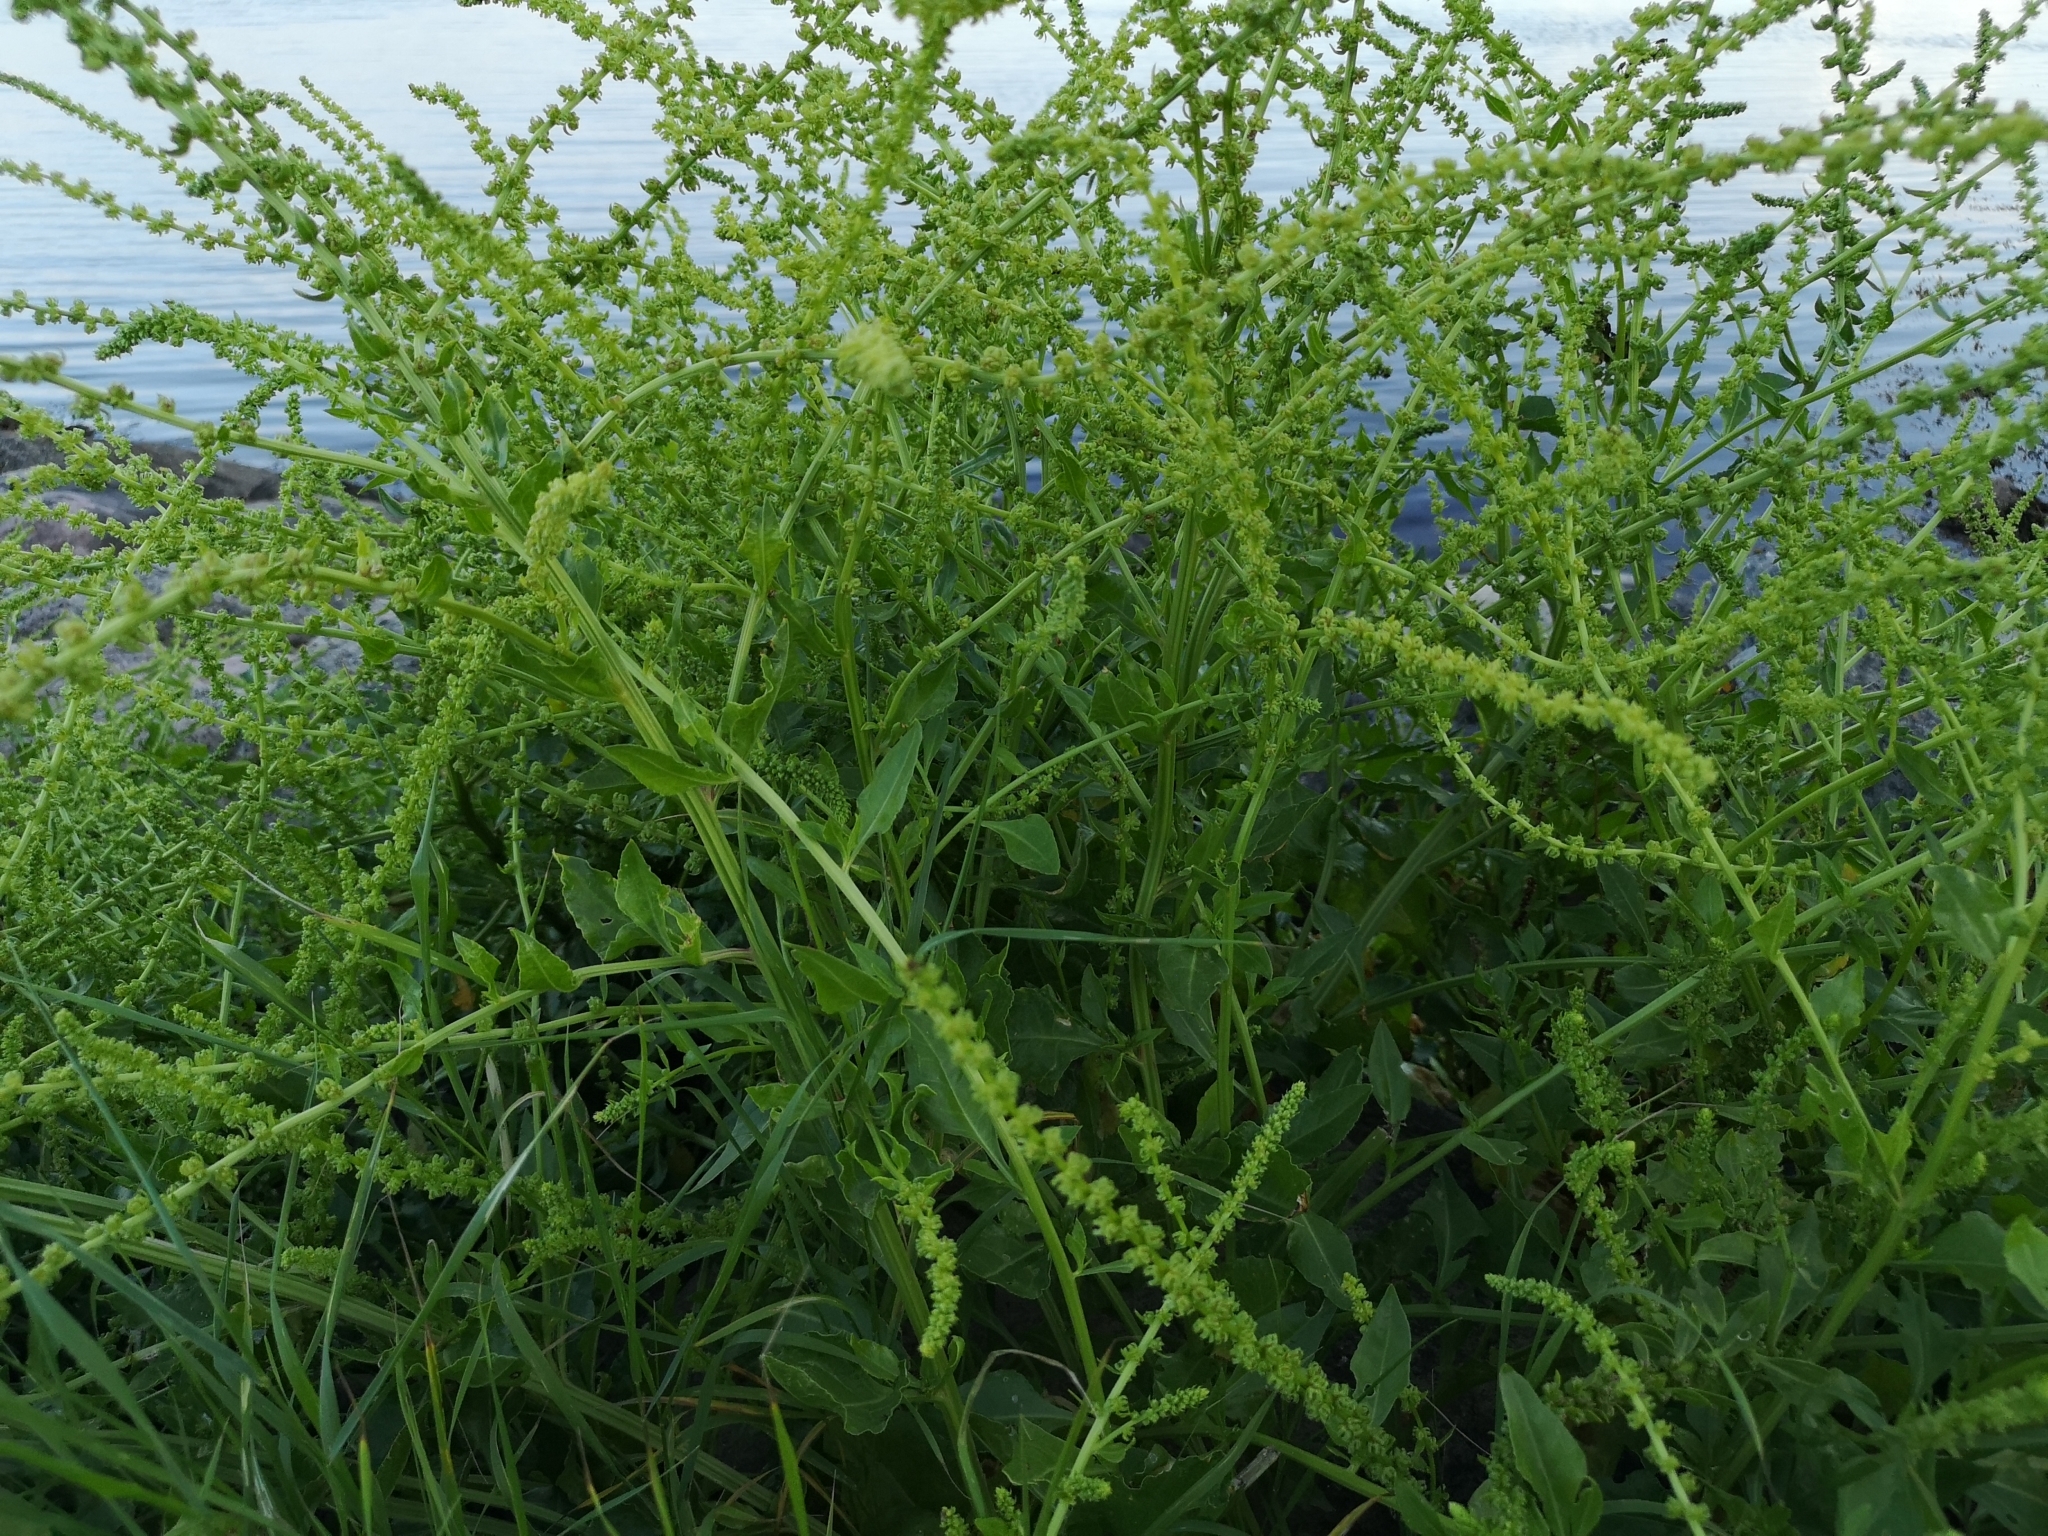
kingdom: Plantae
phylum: Tracheophyta
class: Magnoliopsida
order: Caryophyllales
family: Amaranthaceae
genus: Beta
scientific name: Beta vulgaris
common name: Beet
